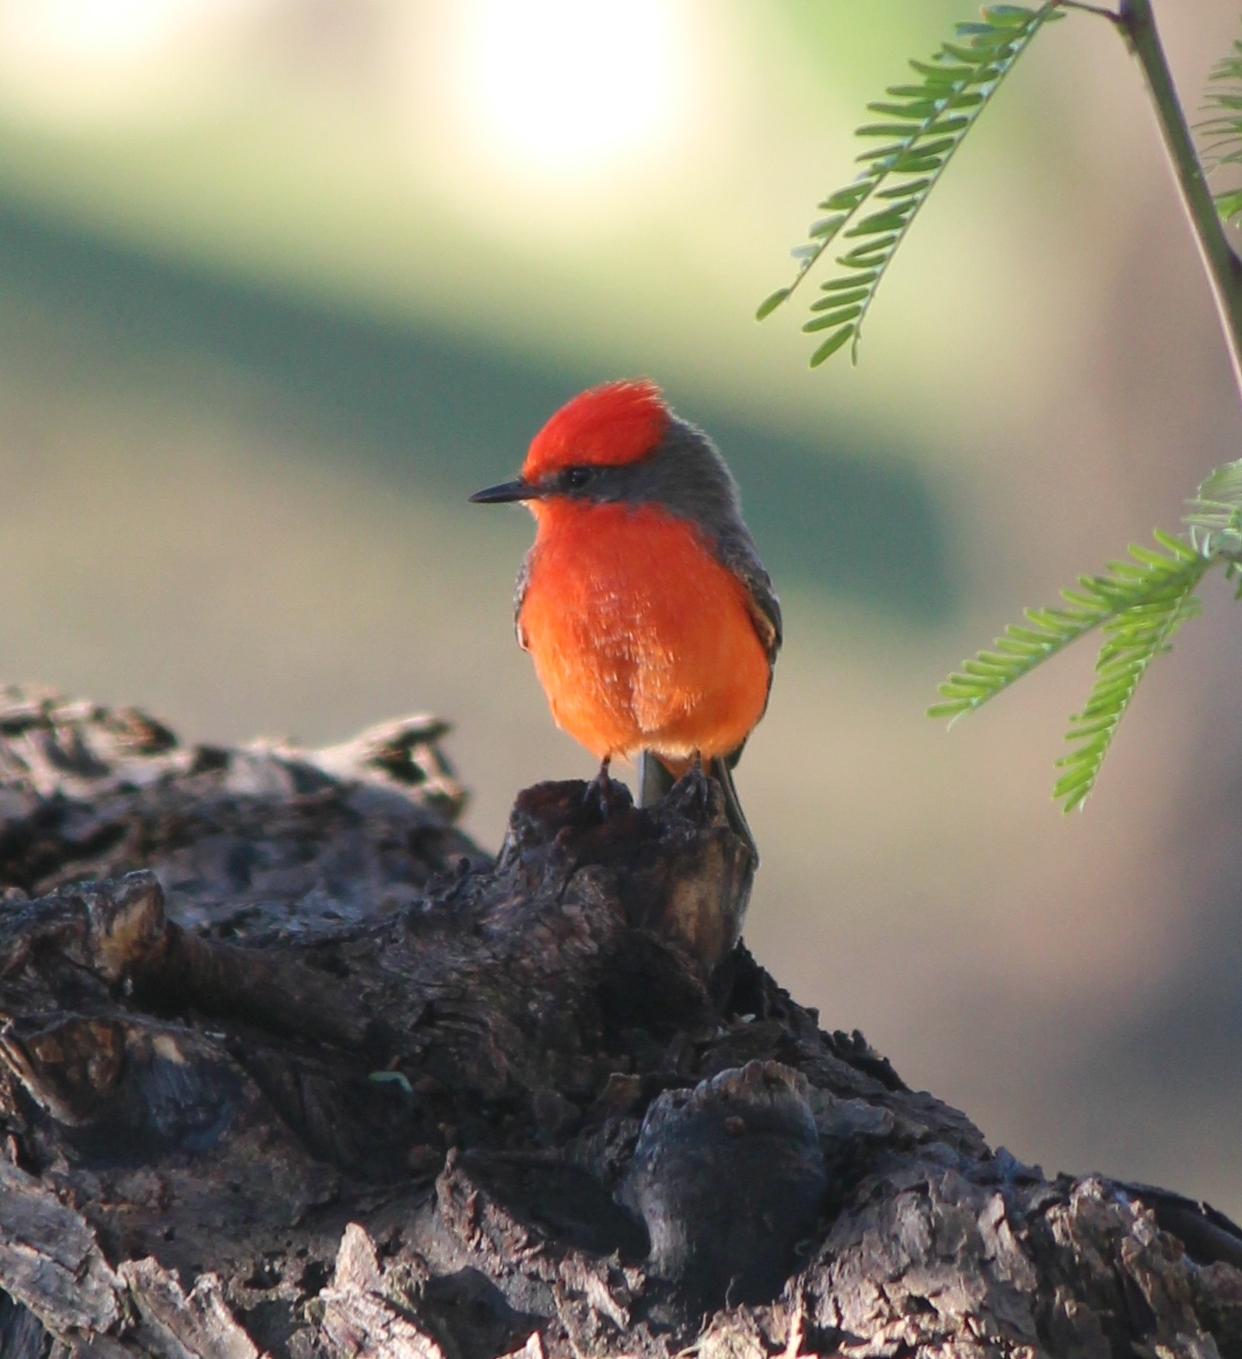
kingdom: Animalia
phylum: Chordata
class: Aves
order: Passeriformes
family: Tyrannidae
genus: Pyrocephalus
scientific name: Pyrocephalus rubinus
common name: Vermilion flycatcher
